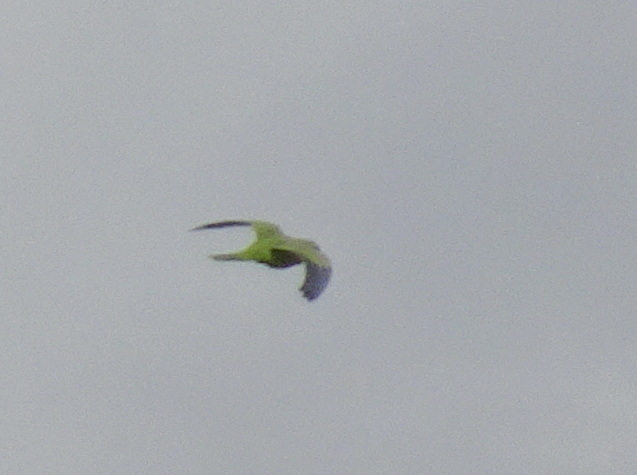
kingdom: Animalia
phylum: Chordata
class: Aves
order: Psittaciformes
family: Psittacidae
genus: Myiopsitta
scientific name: Myiopsitta monachus
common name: Monk parakeet
